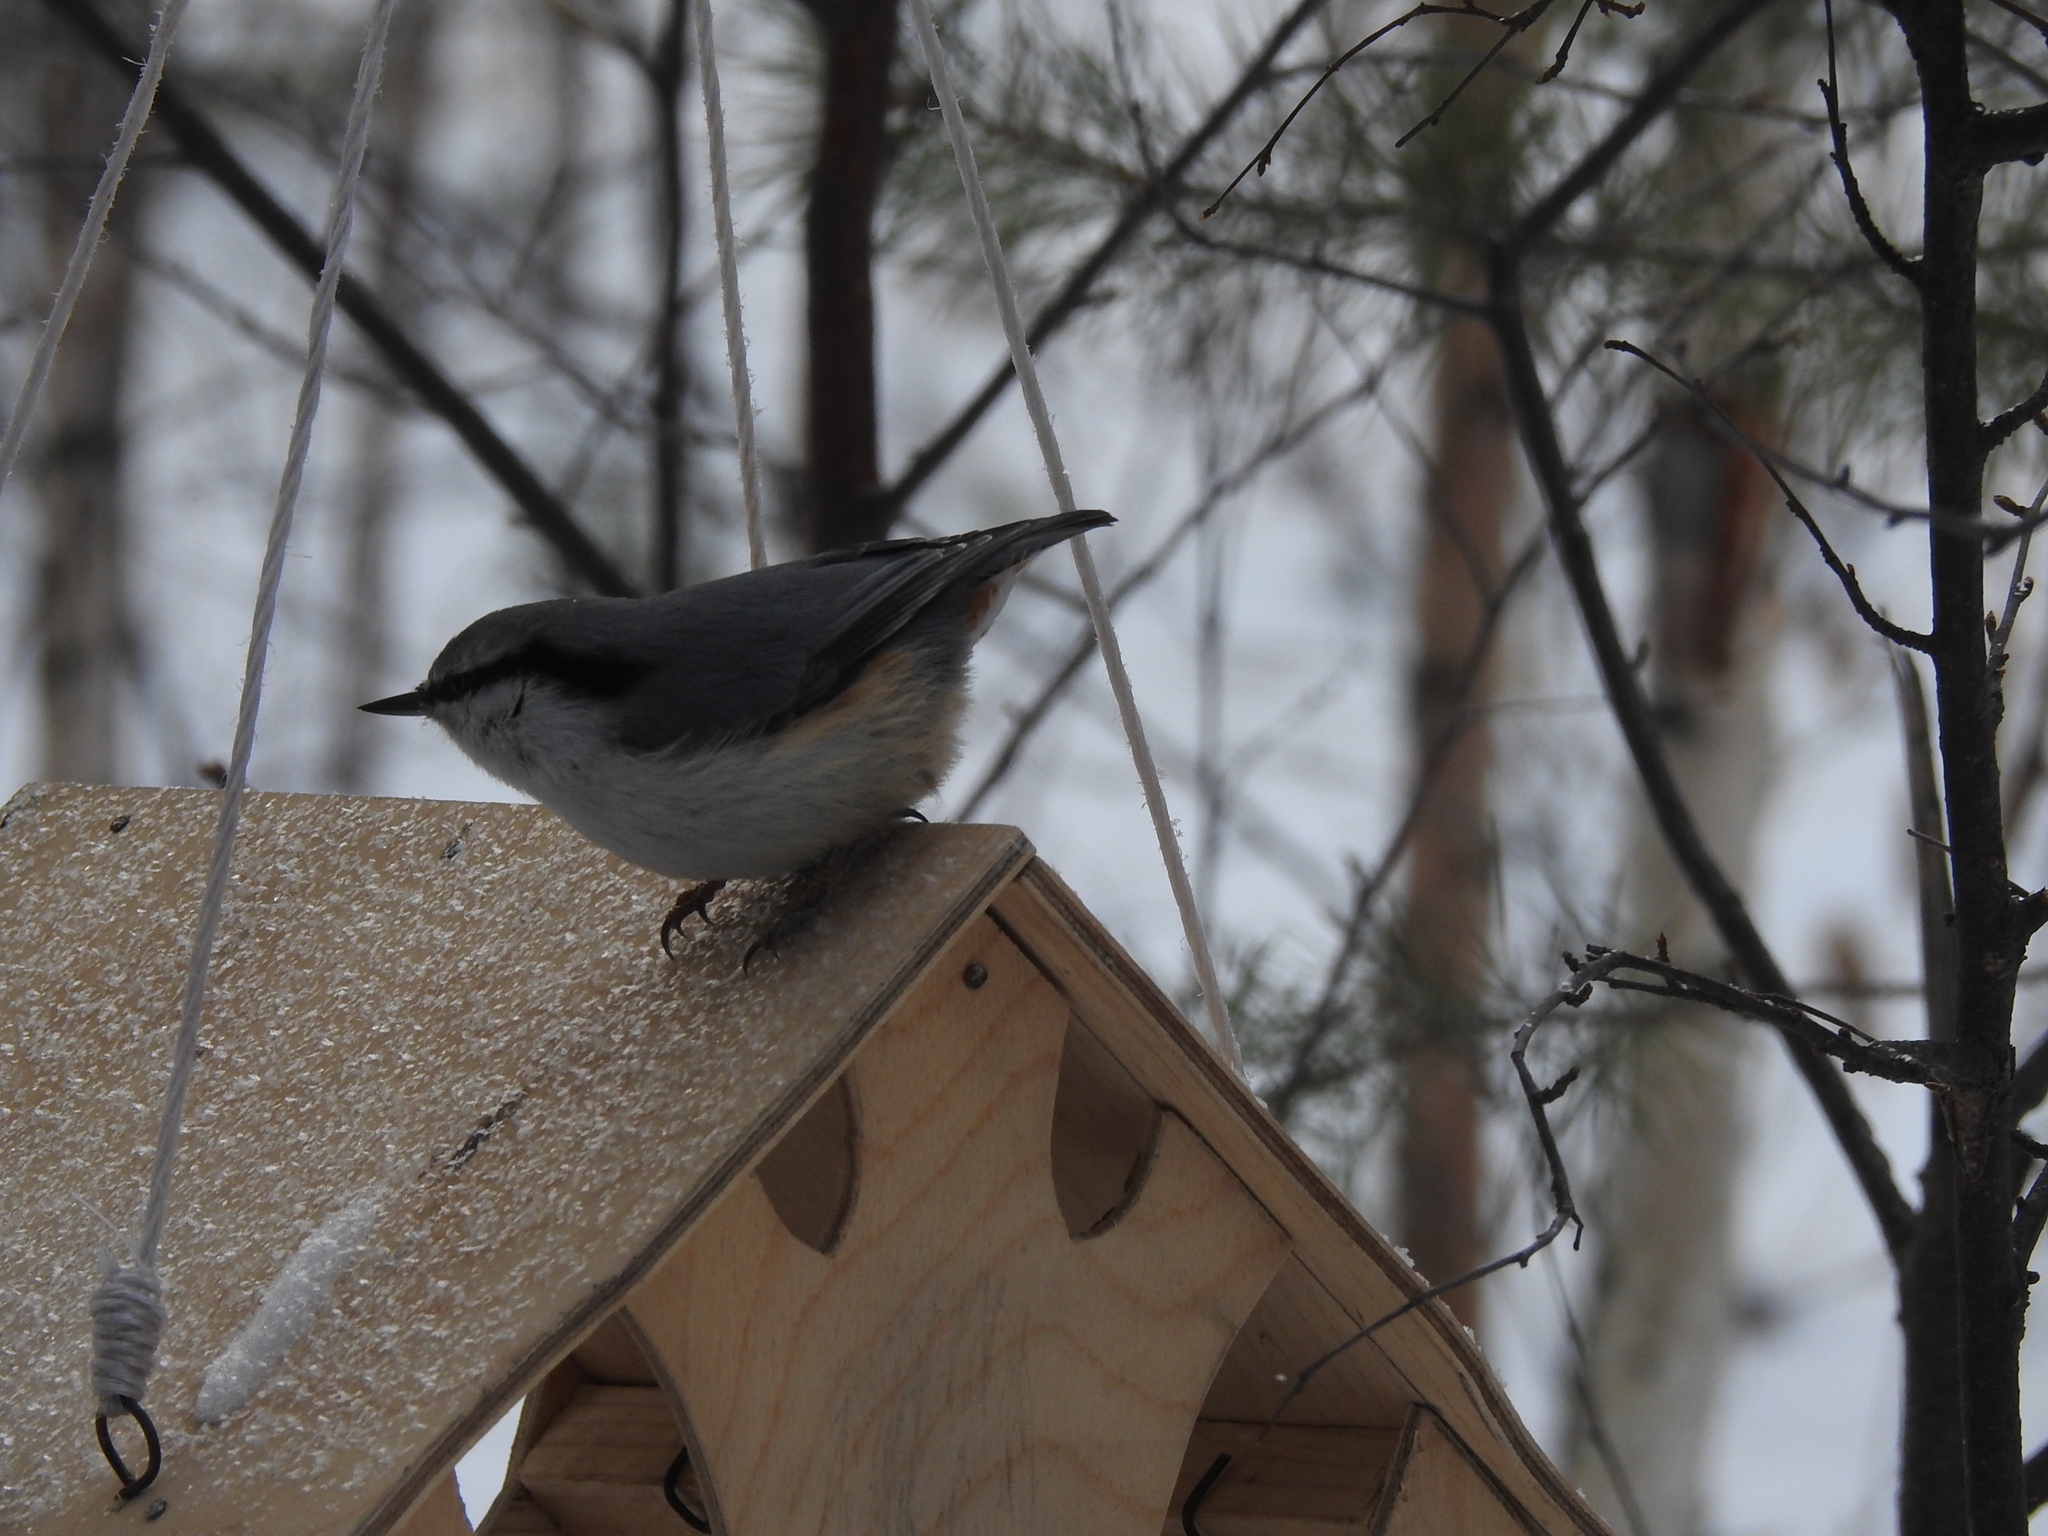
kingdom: Animalia
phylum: Chordata
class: Aves
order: Passeriformes
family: Sittidae
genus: Sitta
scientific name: Sitta europaea
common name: Eurasian nuthatch
